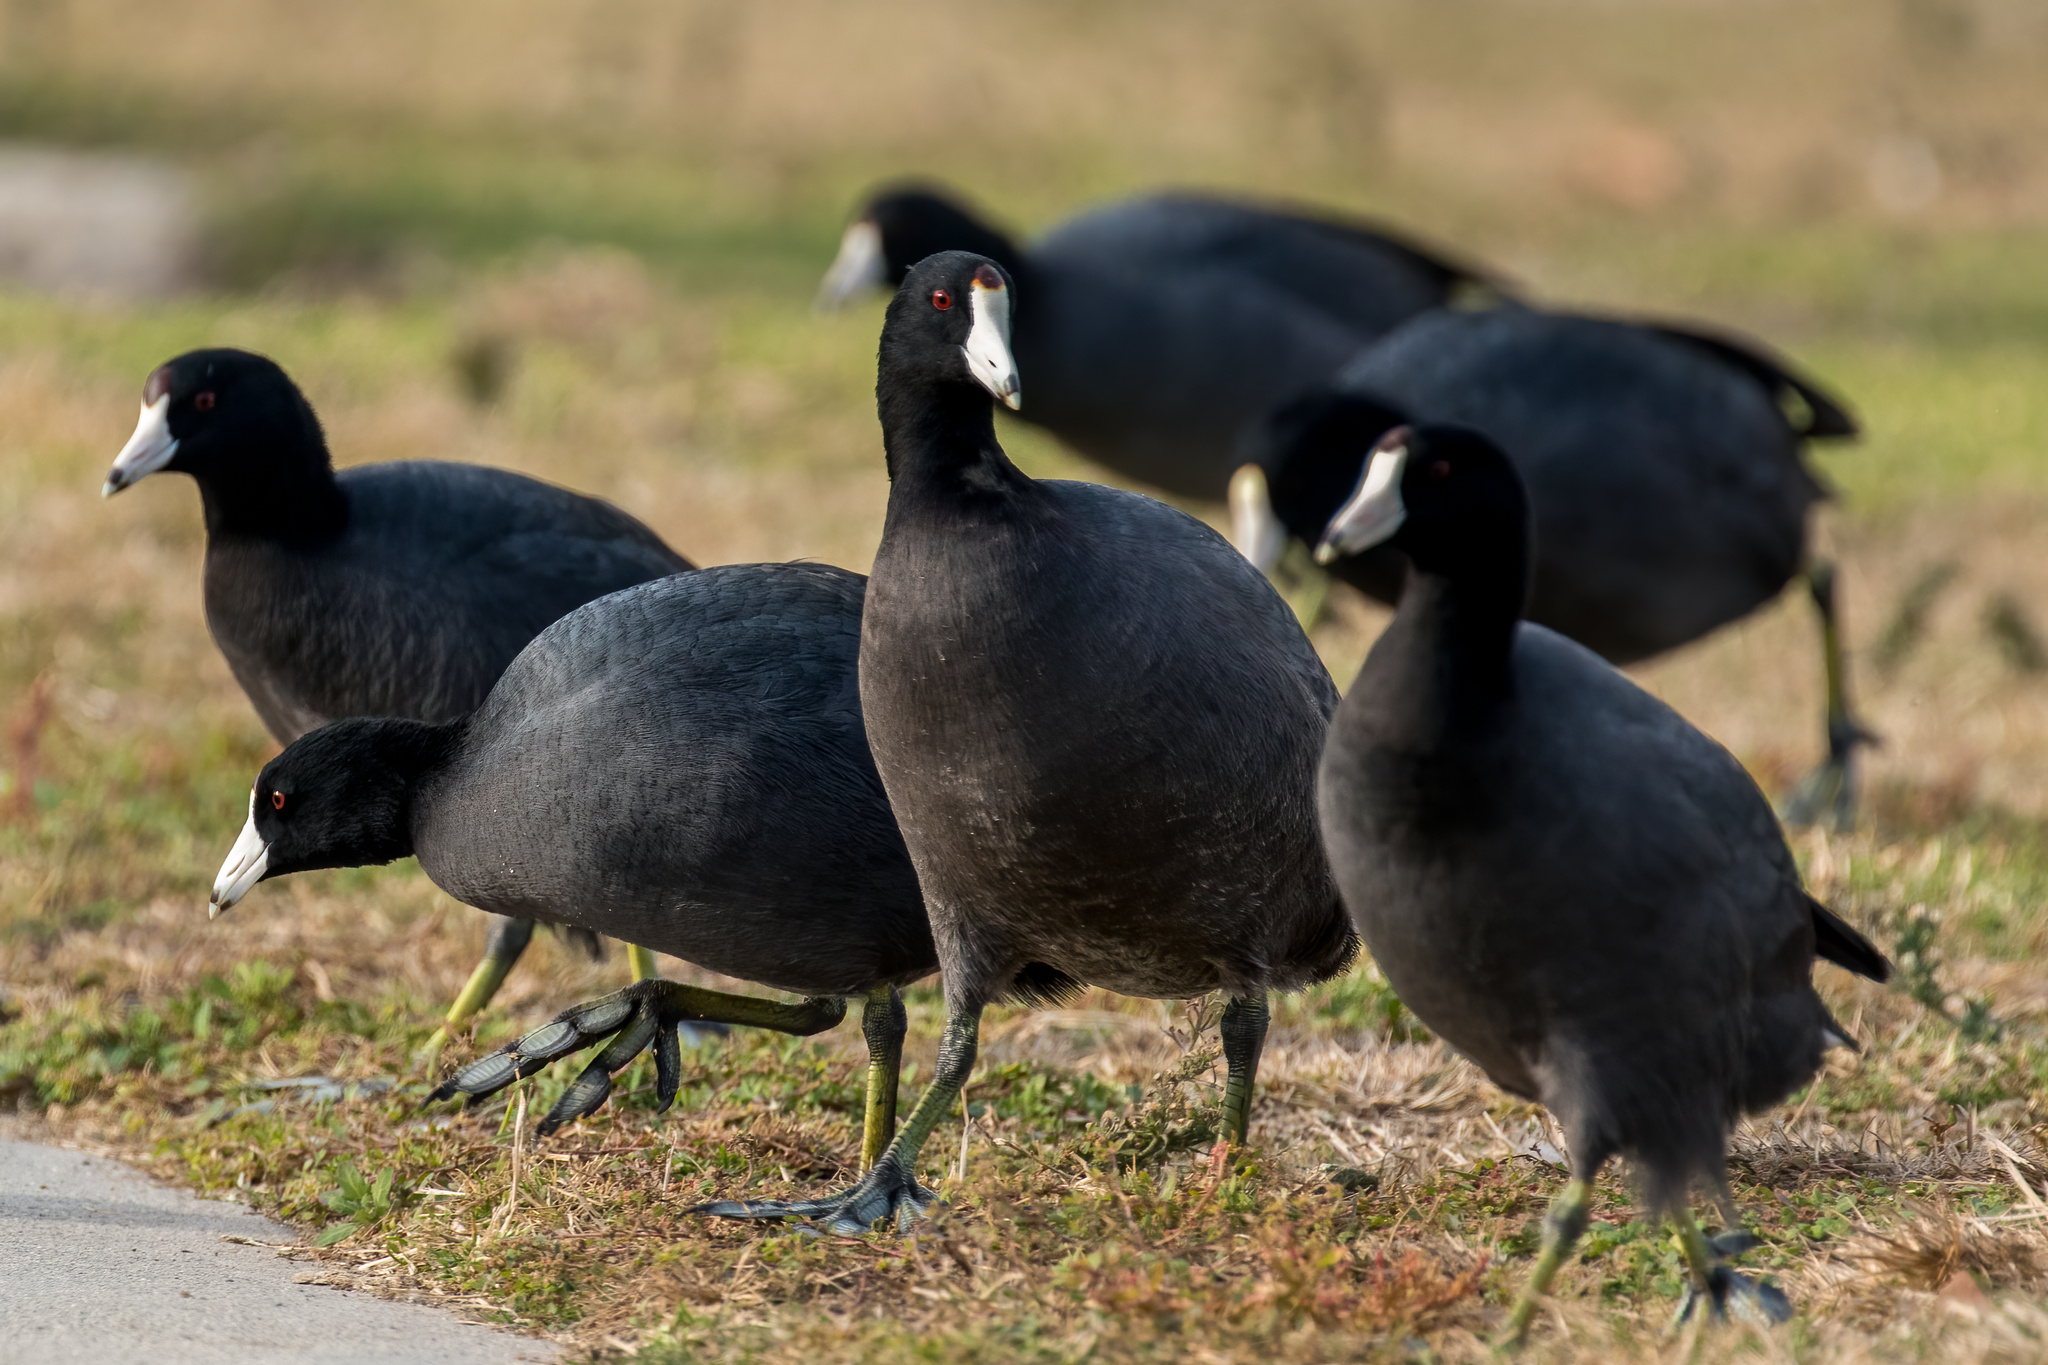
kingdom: Animalia
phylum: Chordata
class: Aves
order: Gruiformes
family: Rallidae
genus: Fulica
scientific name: Fulica americana
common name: American coot
